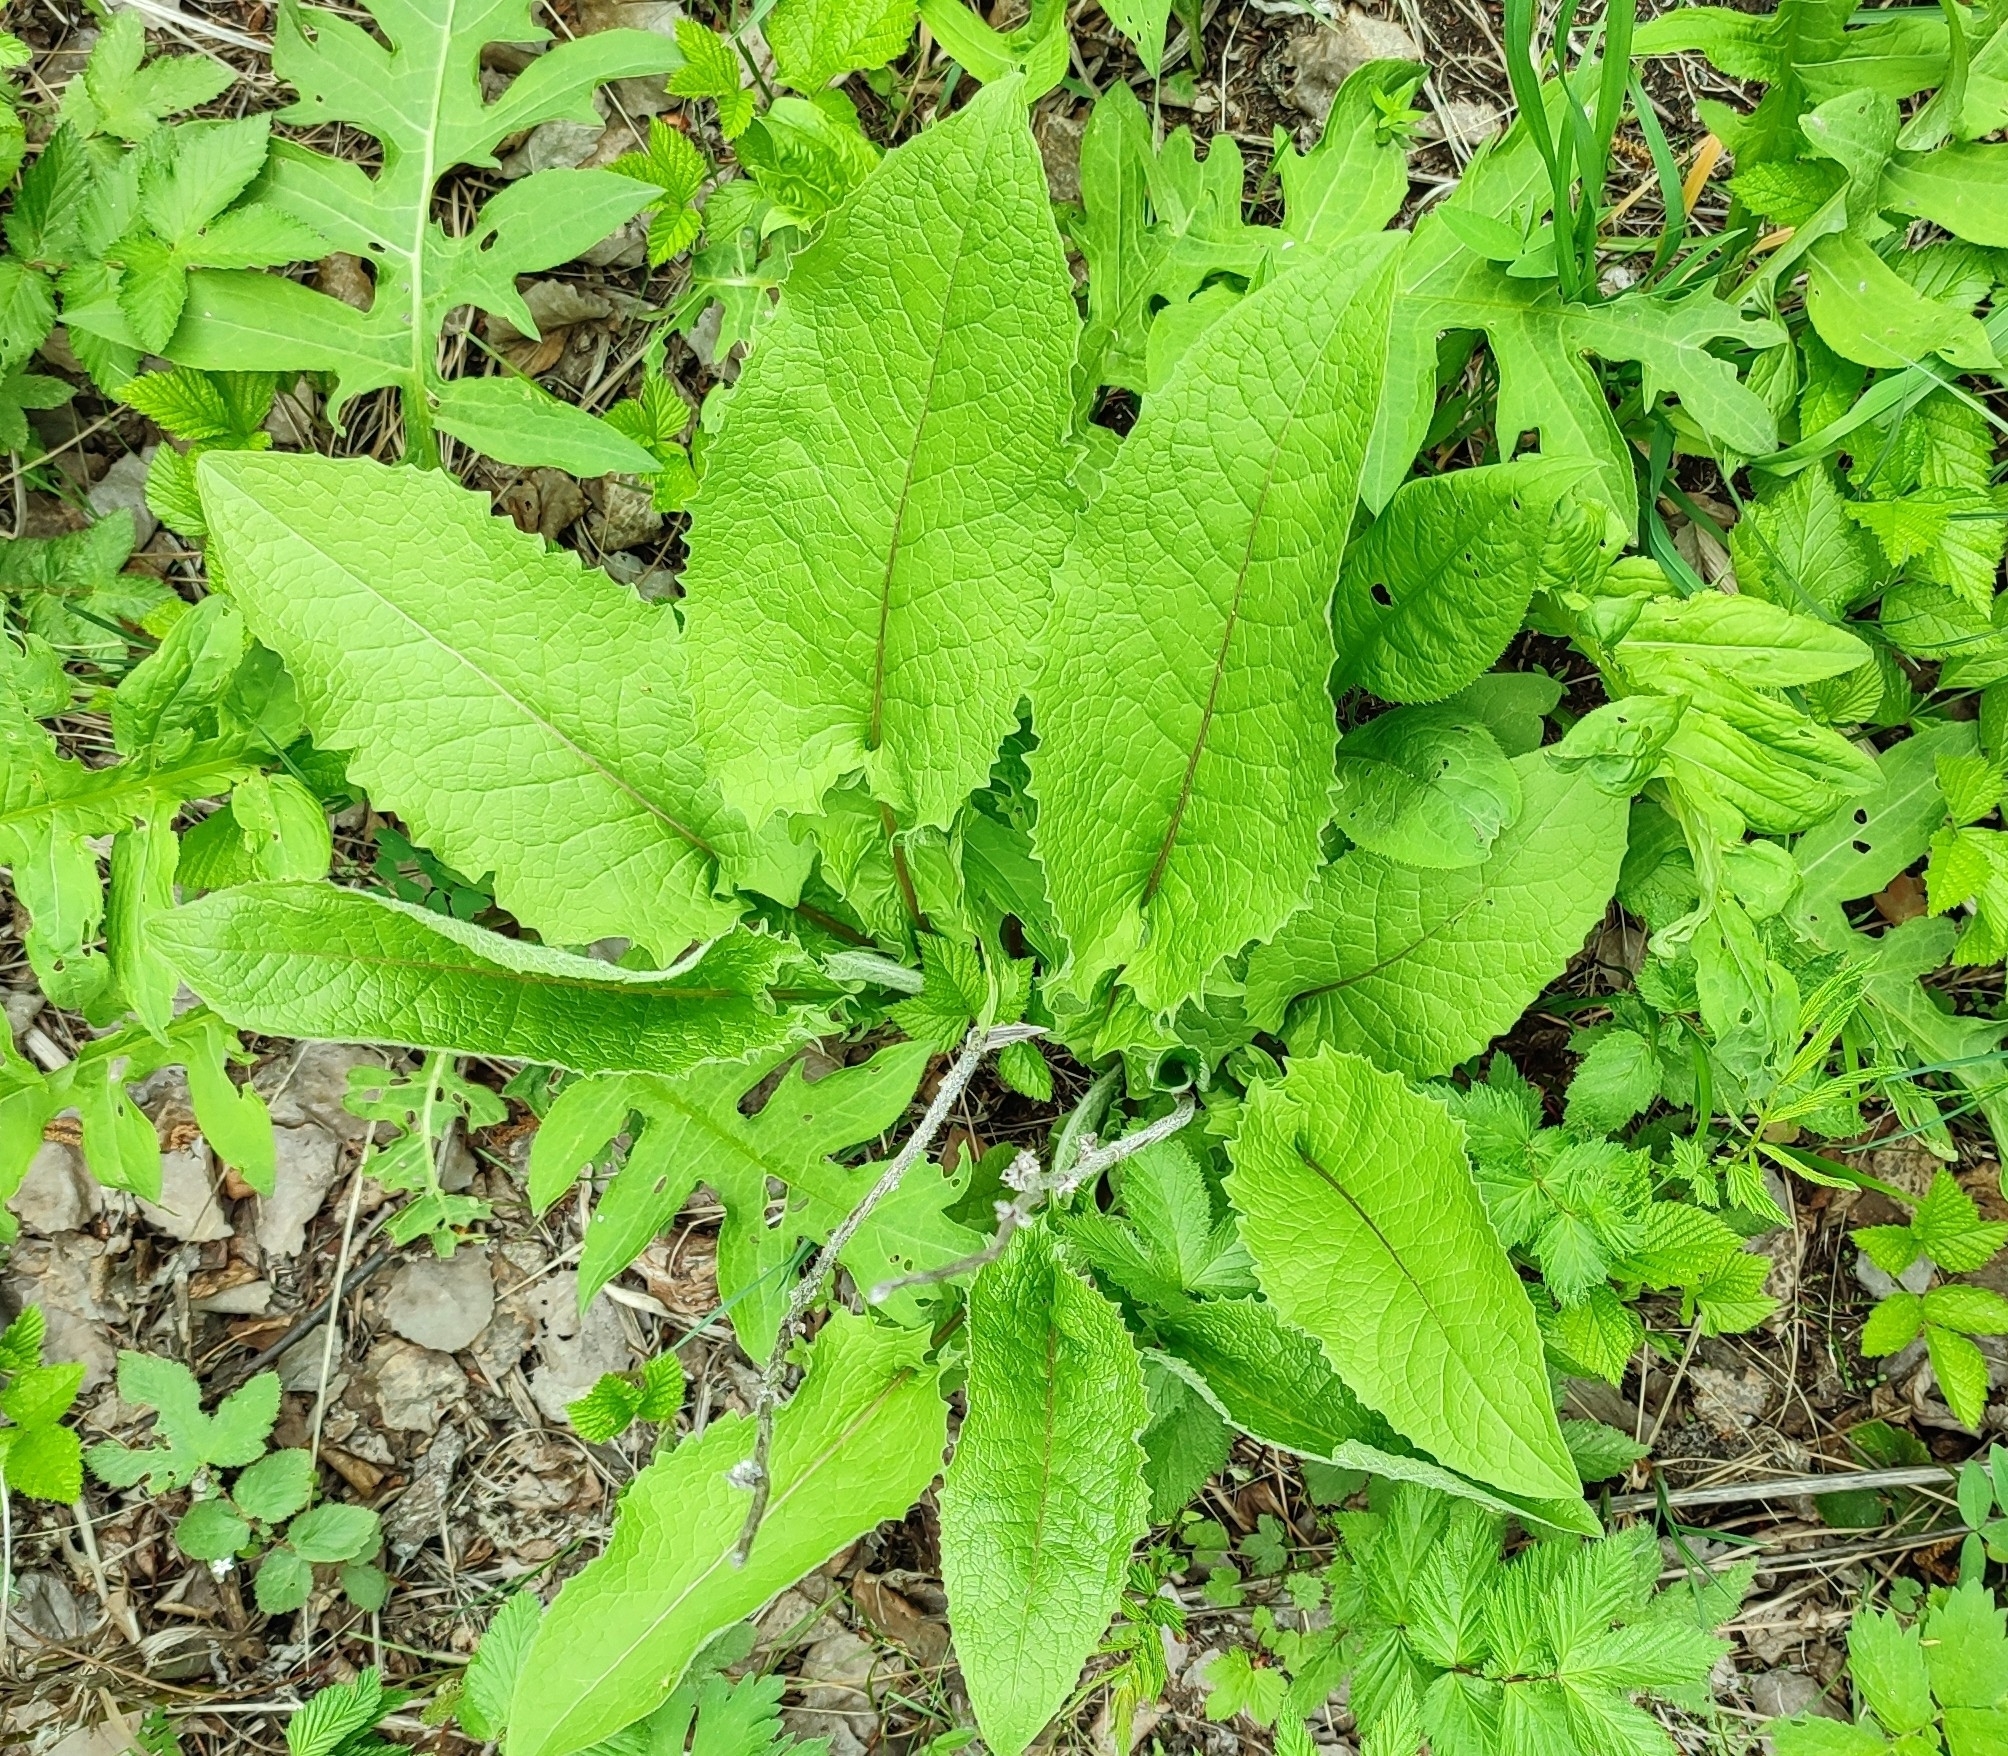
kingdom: Plantae
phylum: Tracheophyta
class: Magnoliopsida
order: Asterales
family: Asteraceae
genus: Crepis
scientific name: Crepis sibirica
